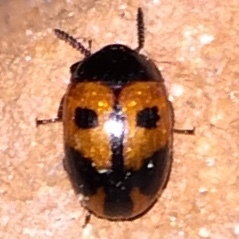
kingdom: Animalia
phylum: Arthropoda
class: Insecta
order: Coleoptera
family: Tenebrionidae
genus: Diaperis
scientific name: Diaperis maculata
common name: Darkling beetle
